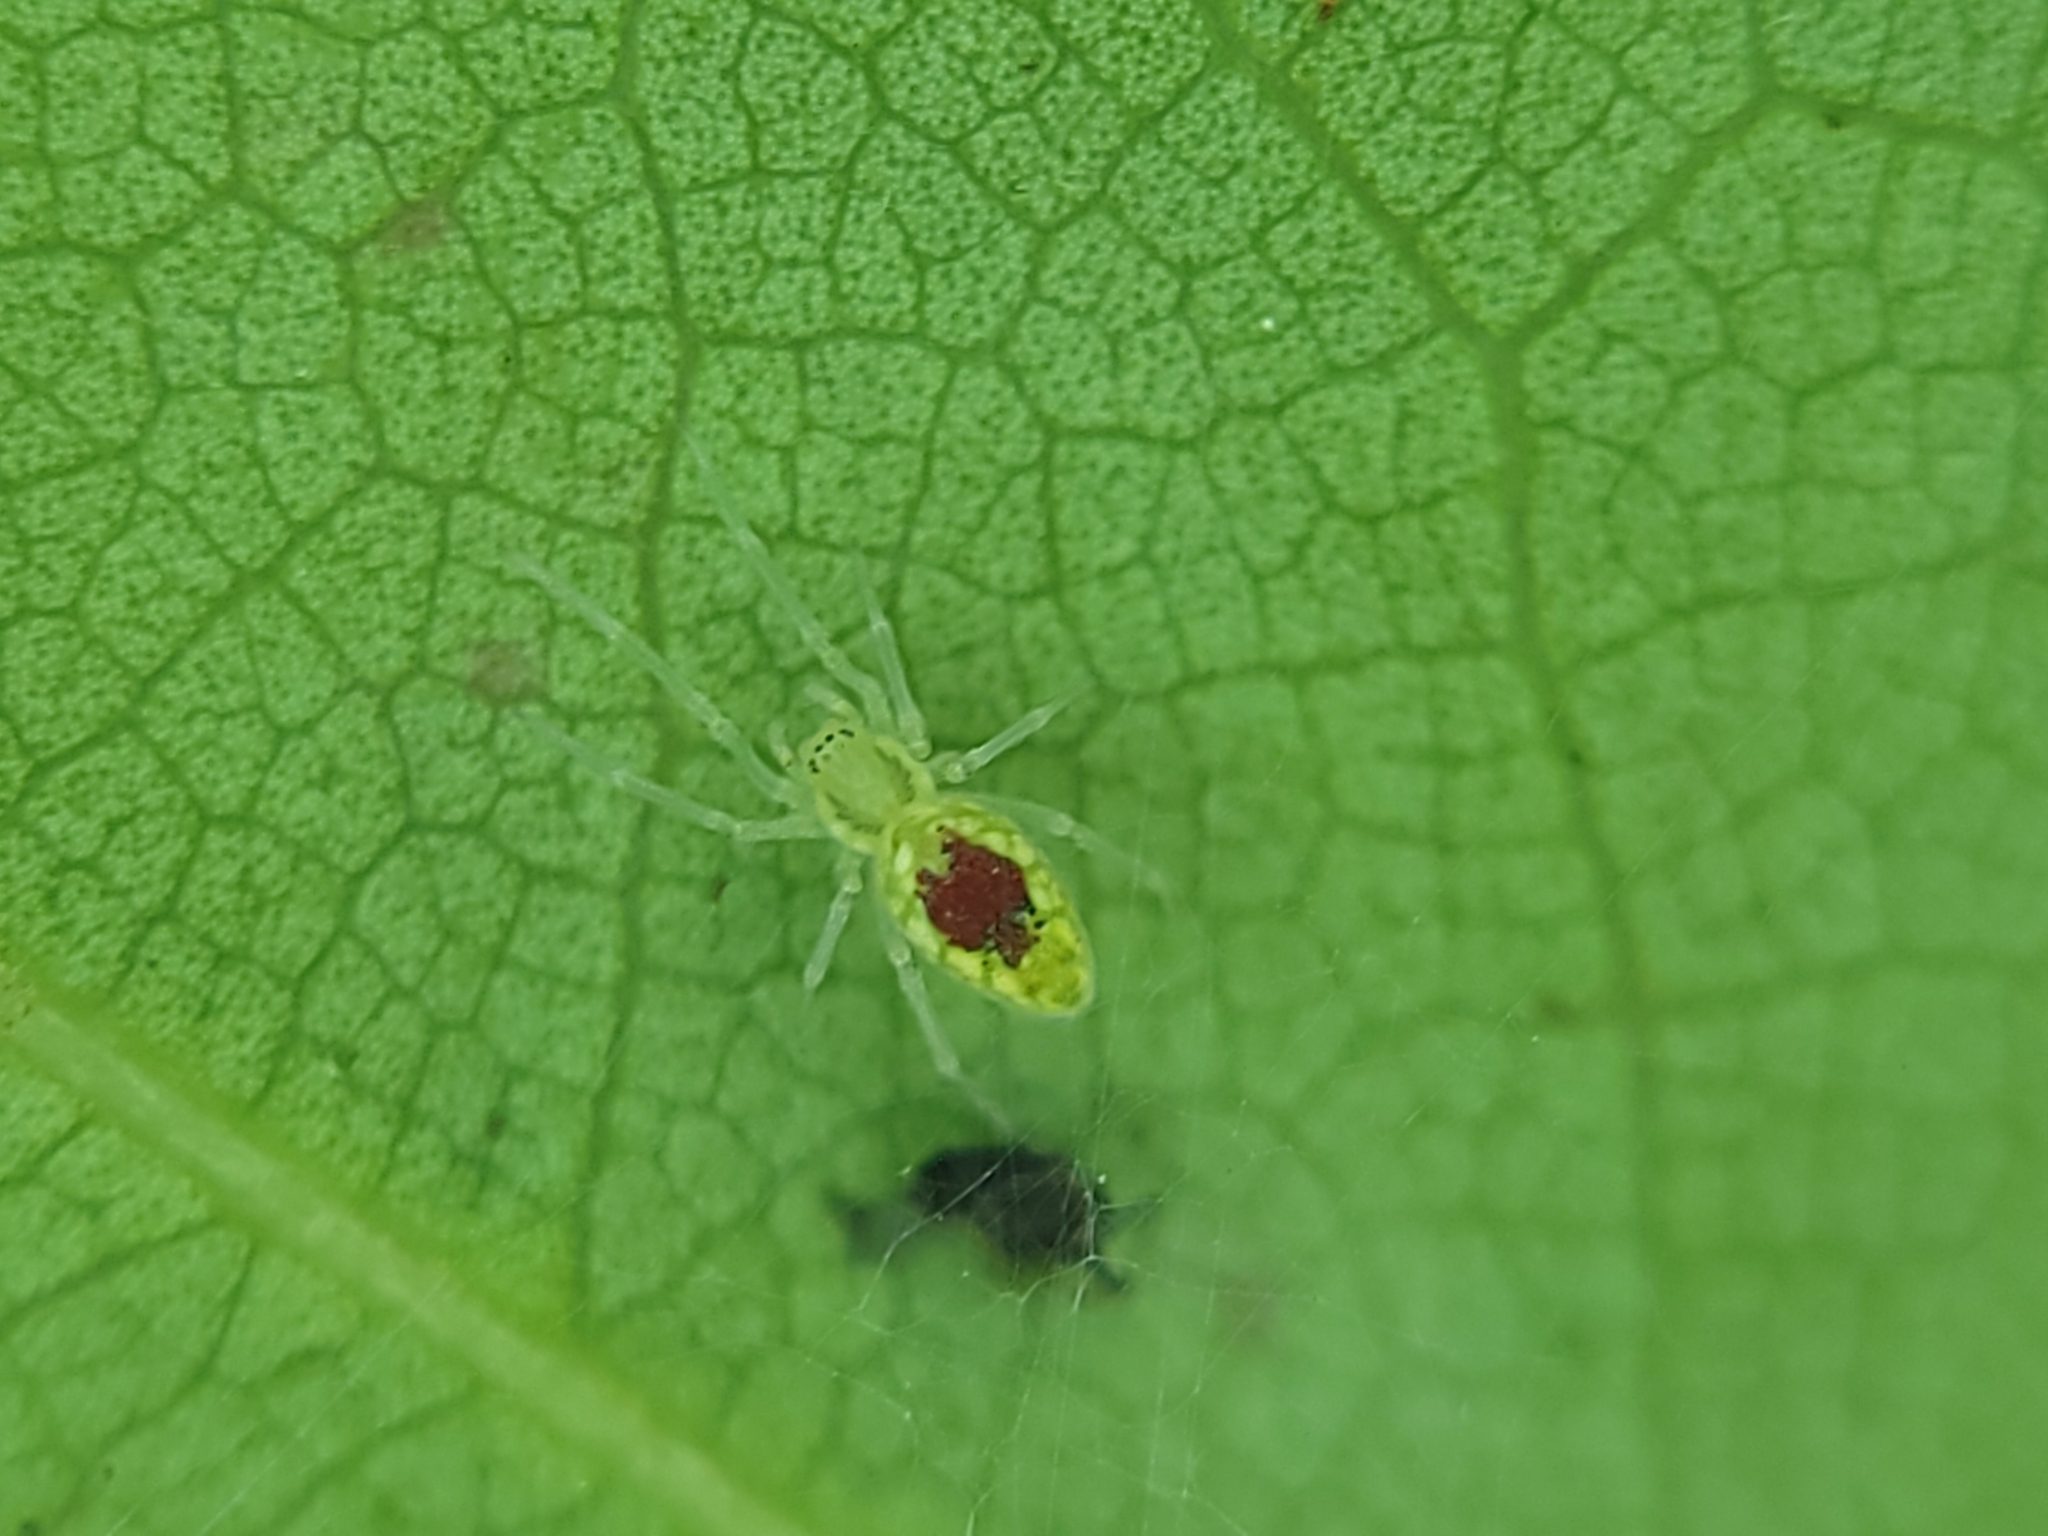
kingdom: Animalia
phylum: Arthropoda
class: Arachnida
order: Araneae
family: Dictynidae
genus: Nigma
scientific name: Nigma linsdalei
